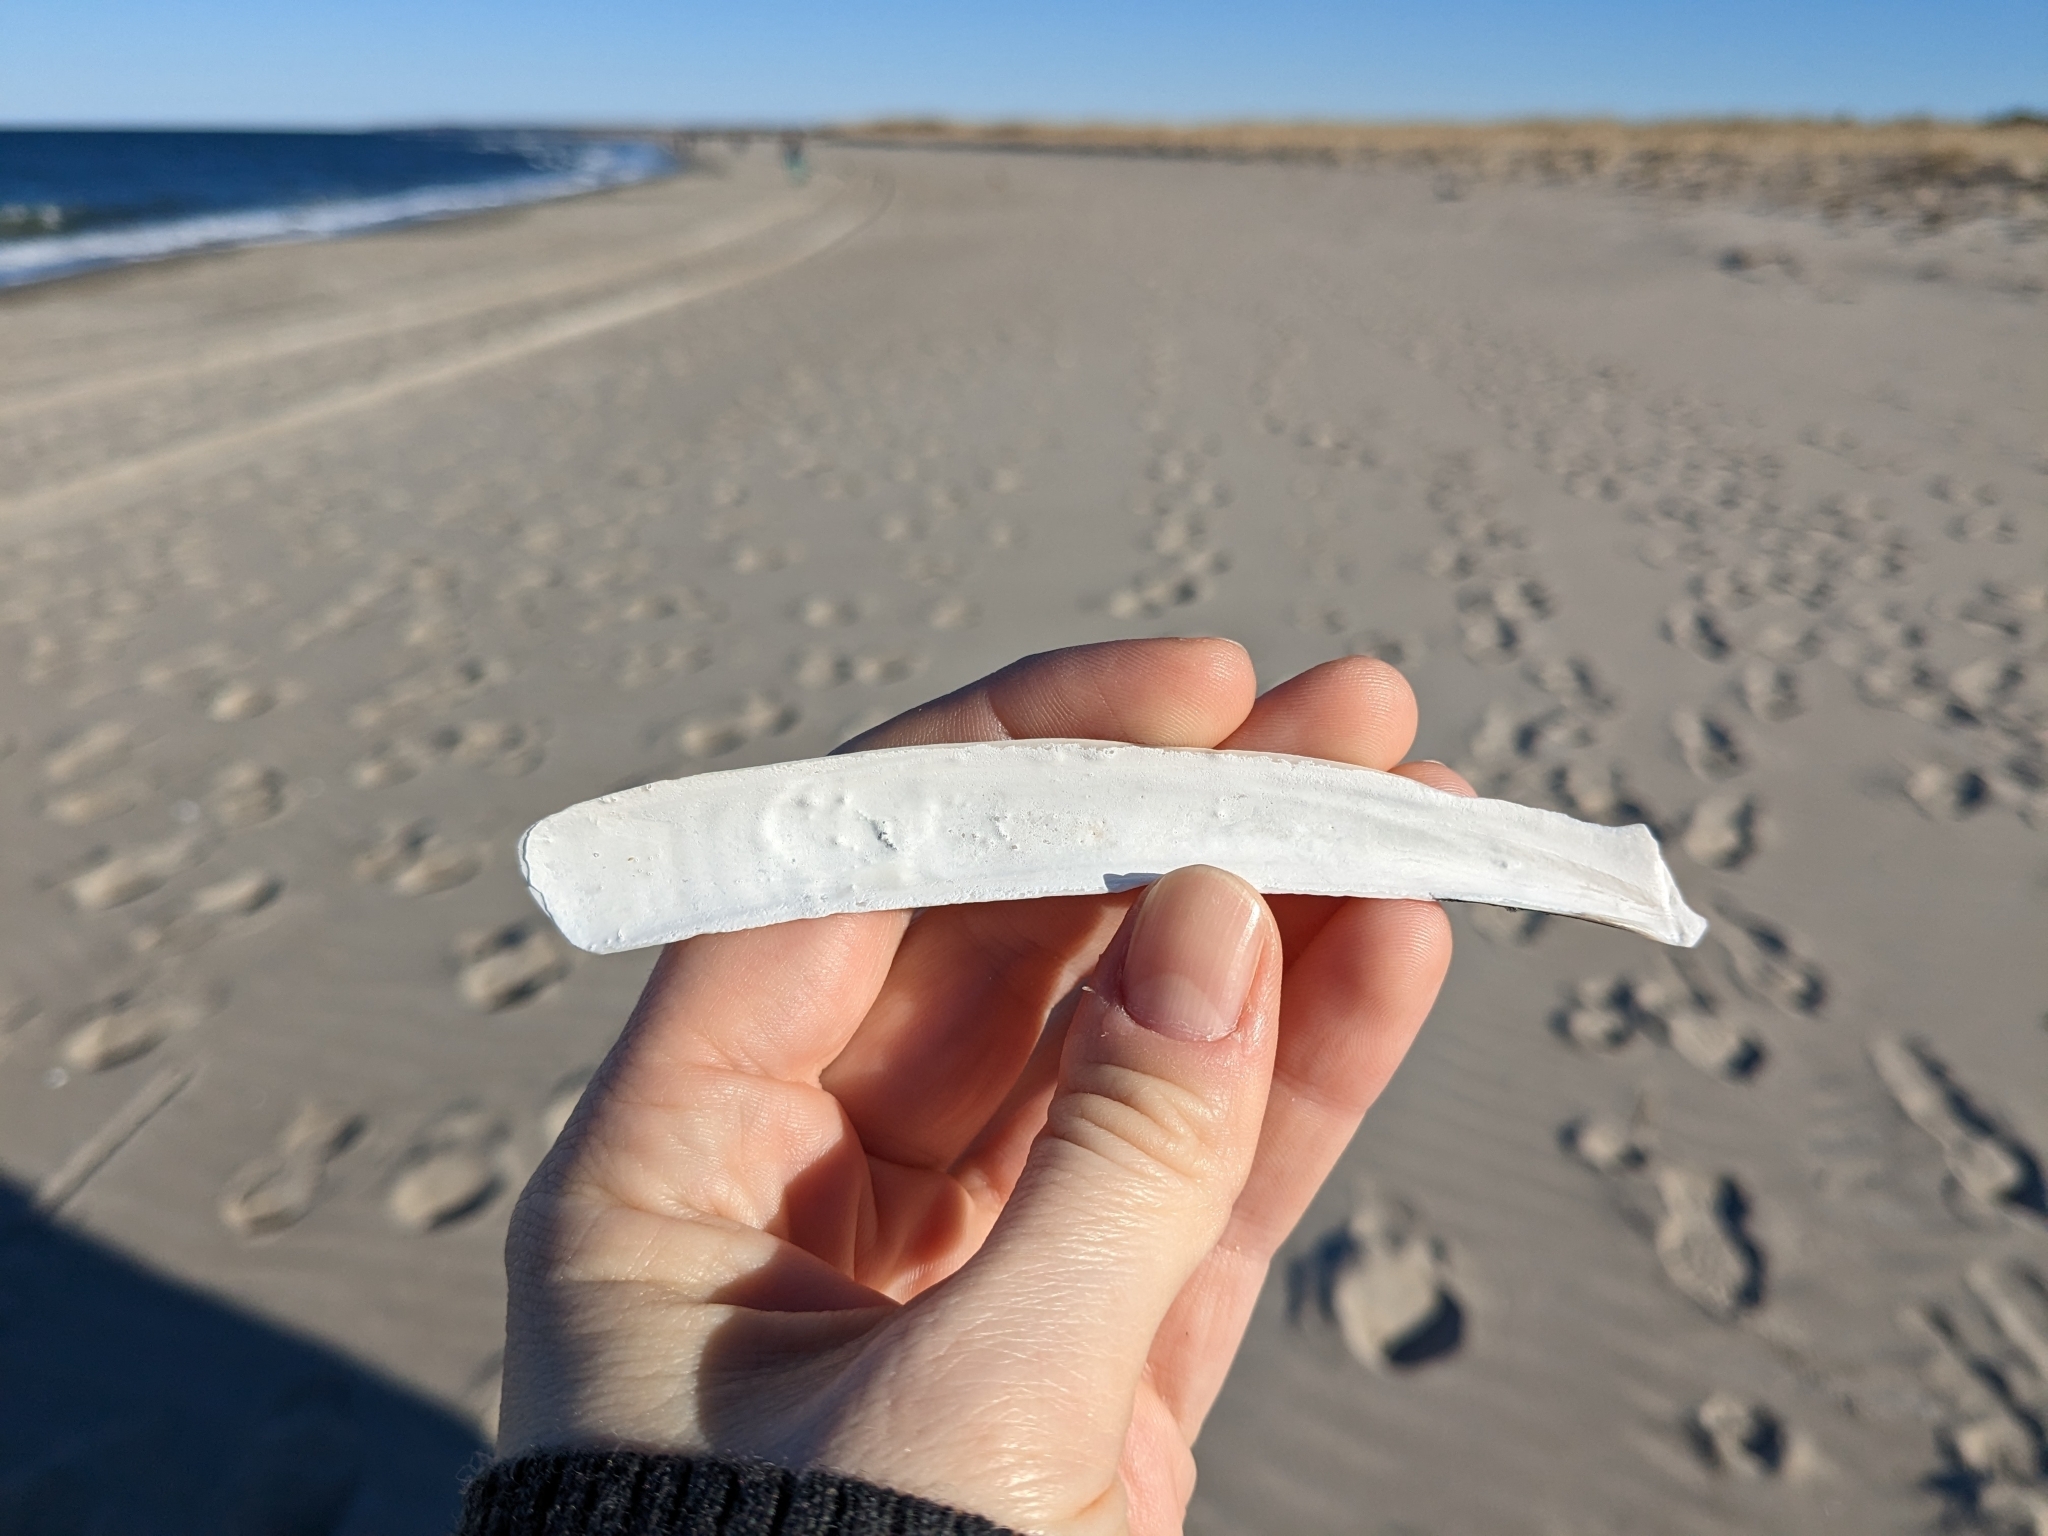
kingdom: Animalia
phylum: Mollusca
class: Bivalvia
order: Adapedonta
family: Pharidae
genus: Ensis
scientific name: Ensis leei
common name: American jack knife clam
